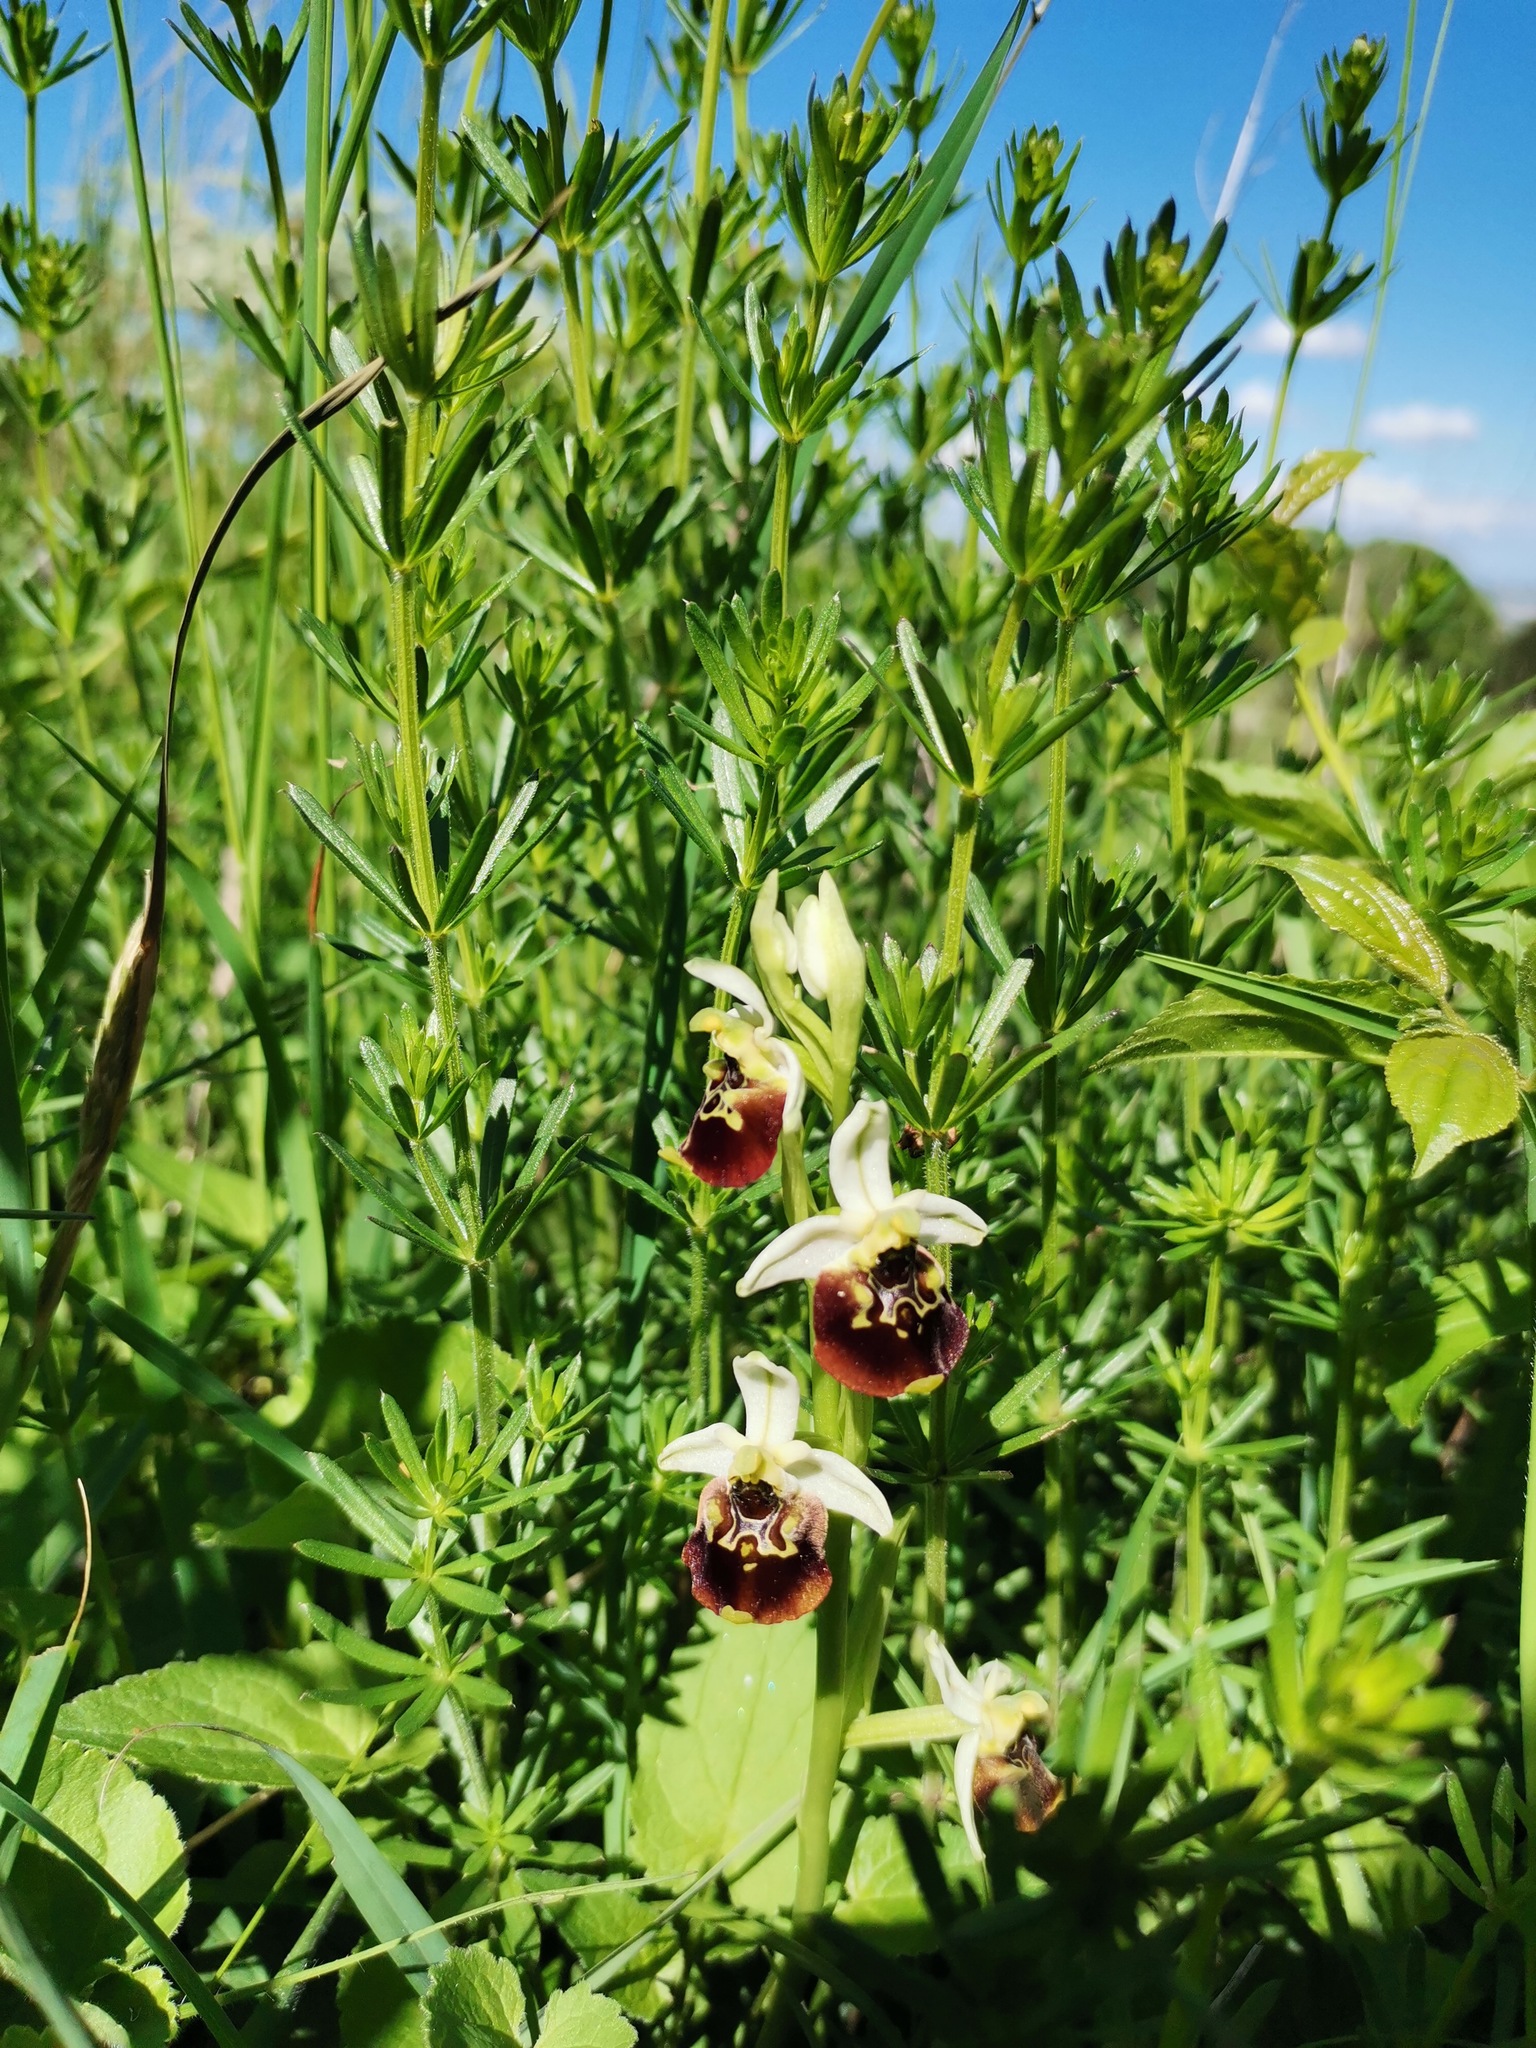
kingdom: Plantae
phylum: Tracheophyta
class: Liliopsida
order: Asparagales
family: Orchidaceae
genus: Ophrys
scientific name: Ophrys holosericea
